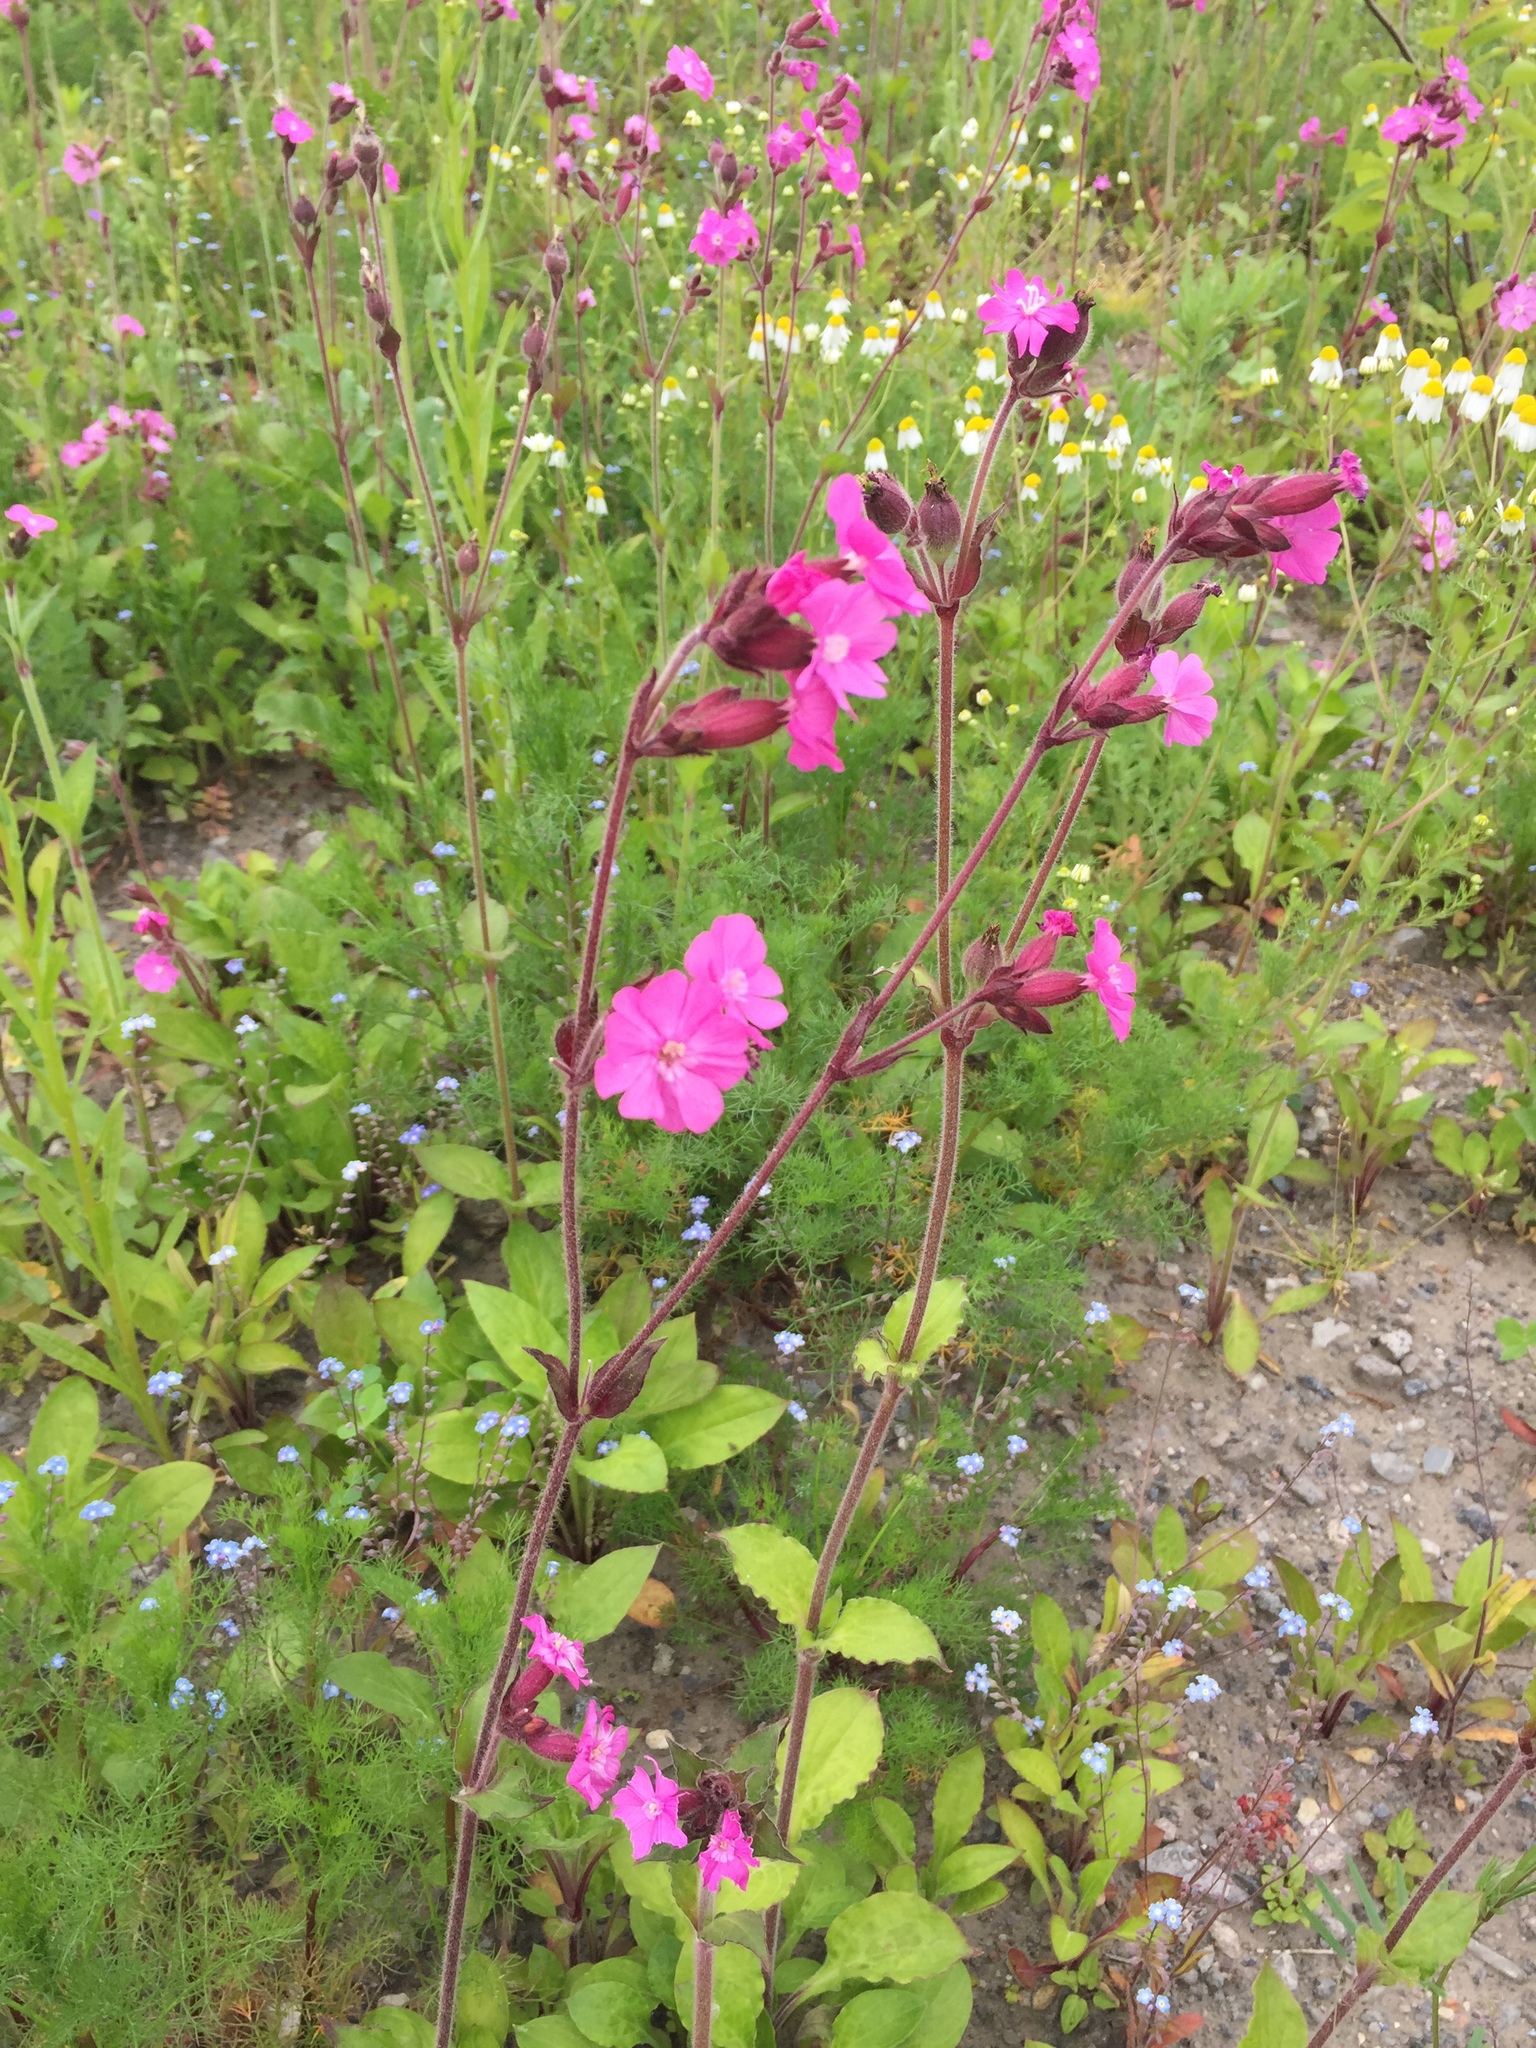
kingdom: Plantae
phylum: Tracheophyta
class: Magnoliopsida
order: Caryophyllales
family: Caryophyllaceae
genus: Silene
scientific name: Silene dioica
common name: Red campion
